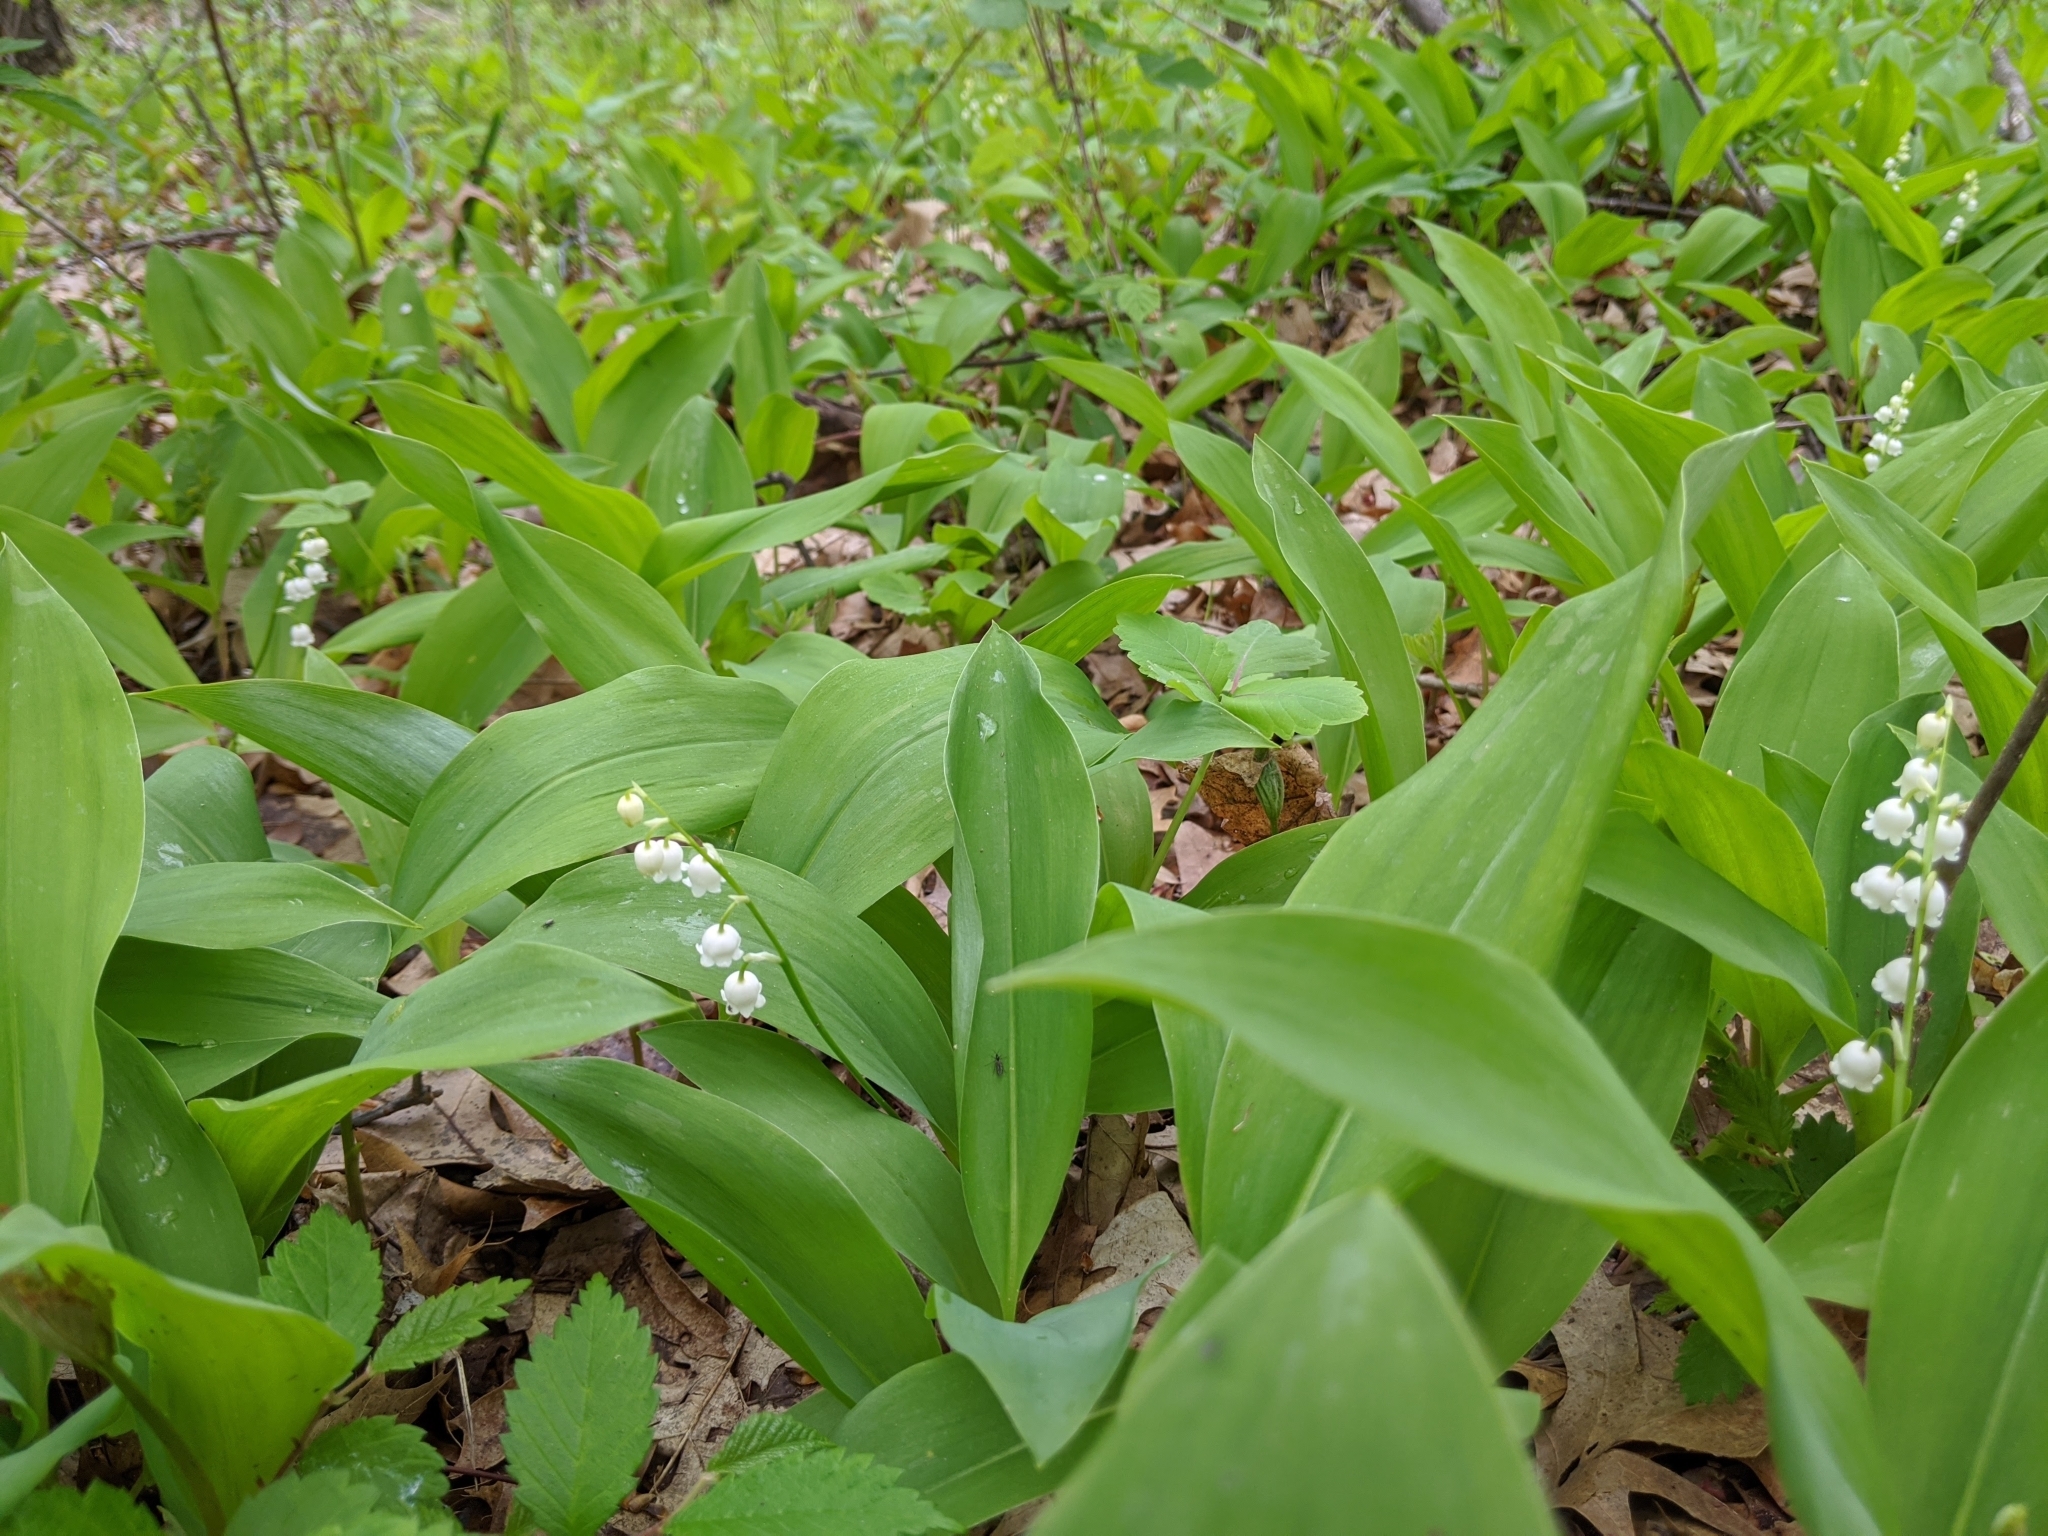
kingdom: Plantae
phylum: Tracheophyta
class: Liliopsida
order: Asparagales
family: Asparagaceae
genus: Convallaria
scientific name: Convallaria majalis
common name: Lily-of-the-valley
